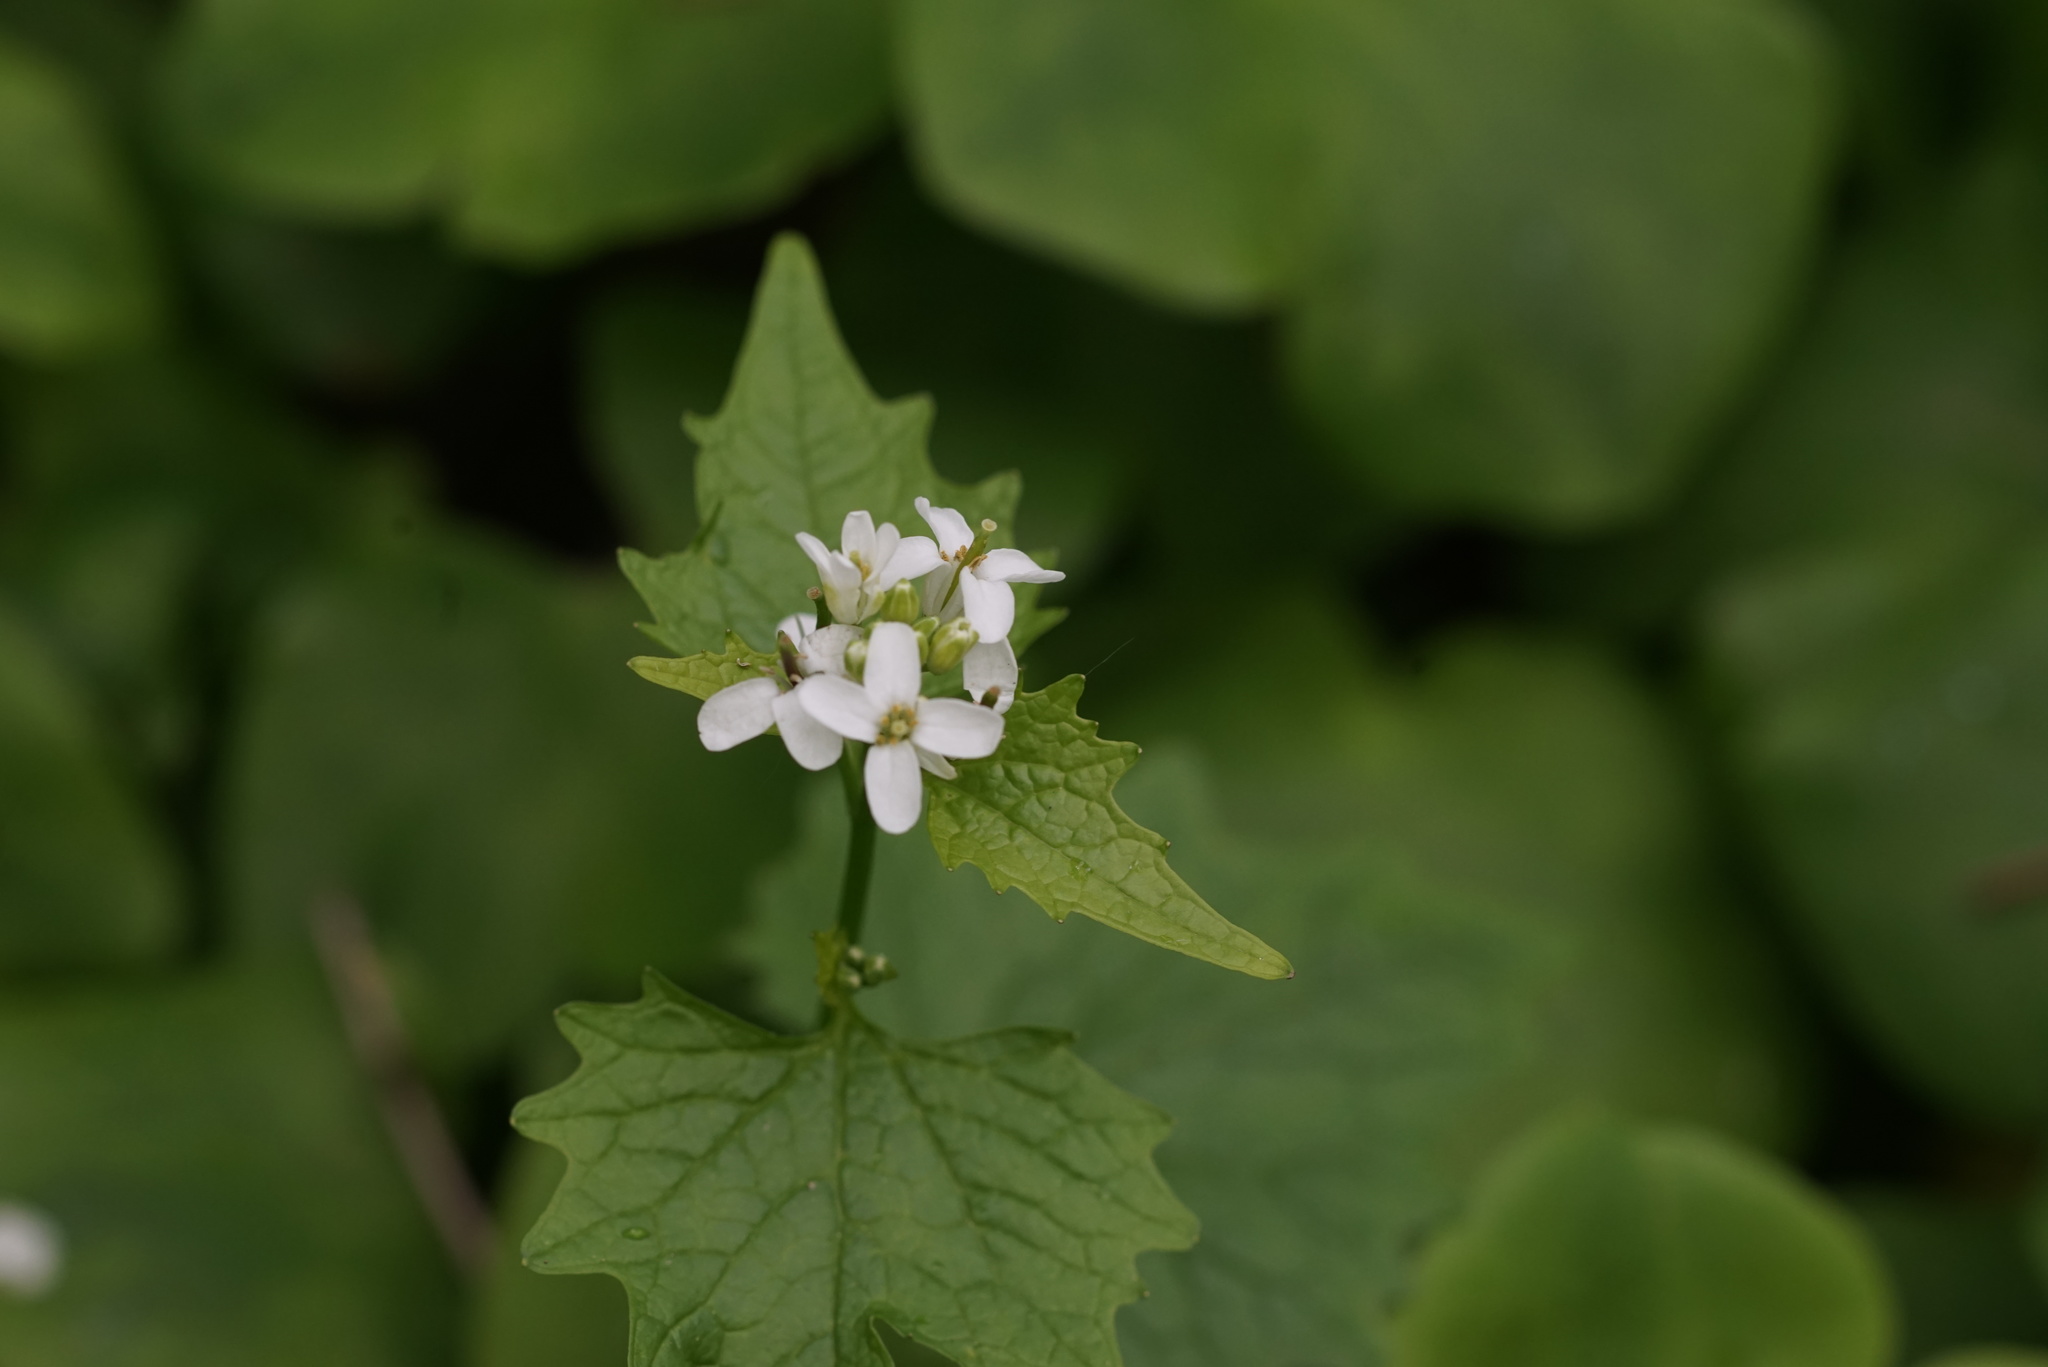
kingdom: Plantae
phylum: Tracheophyta
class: Magnoliopsida
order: Brassicales
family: Brassicaceae
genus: Alliaria
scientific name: Alliaria petiolata
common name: Garlic mustard
